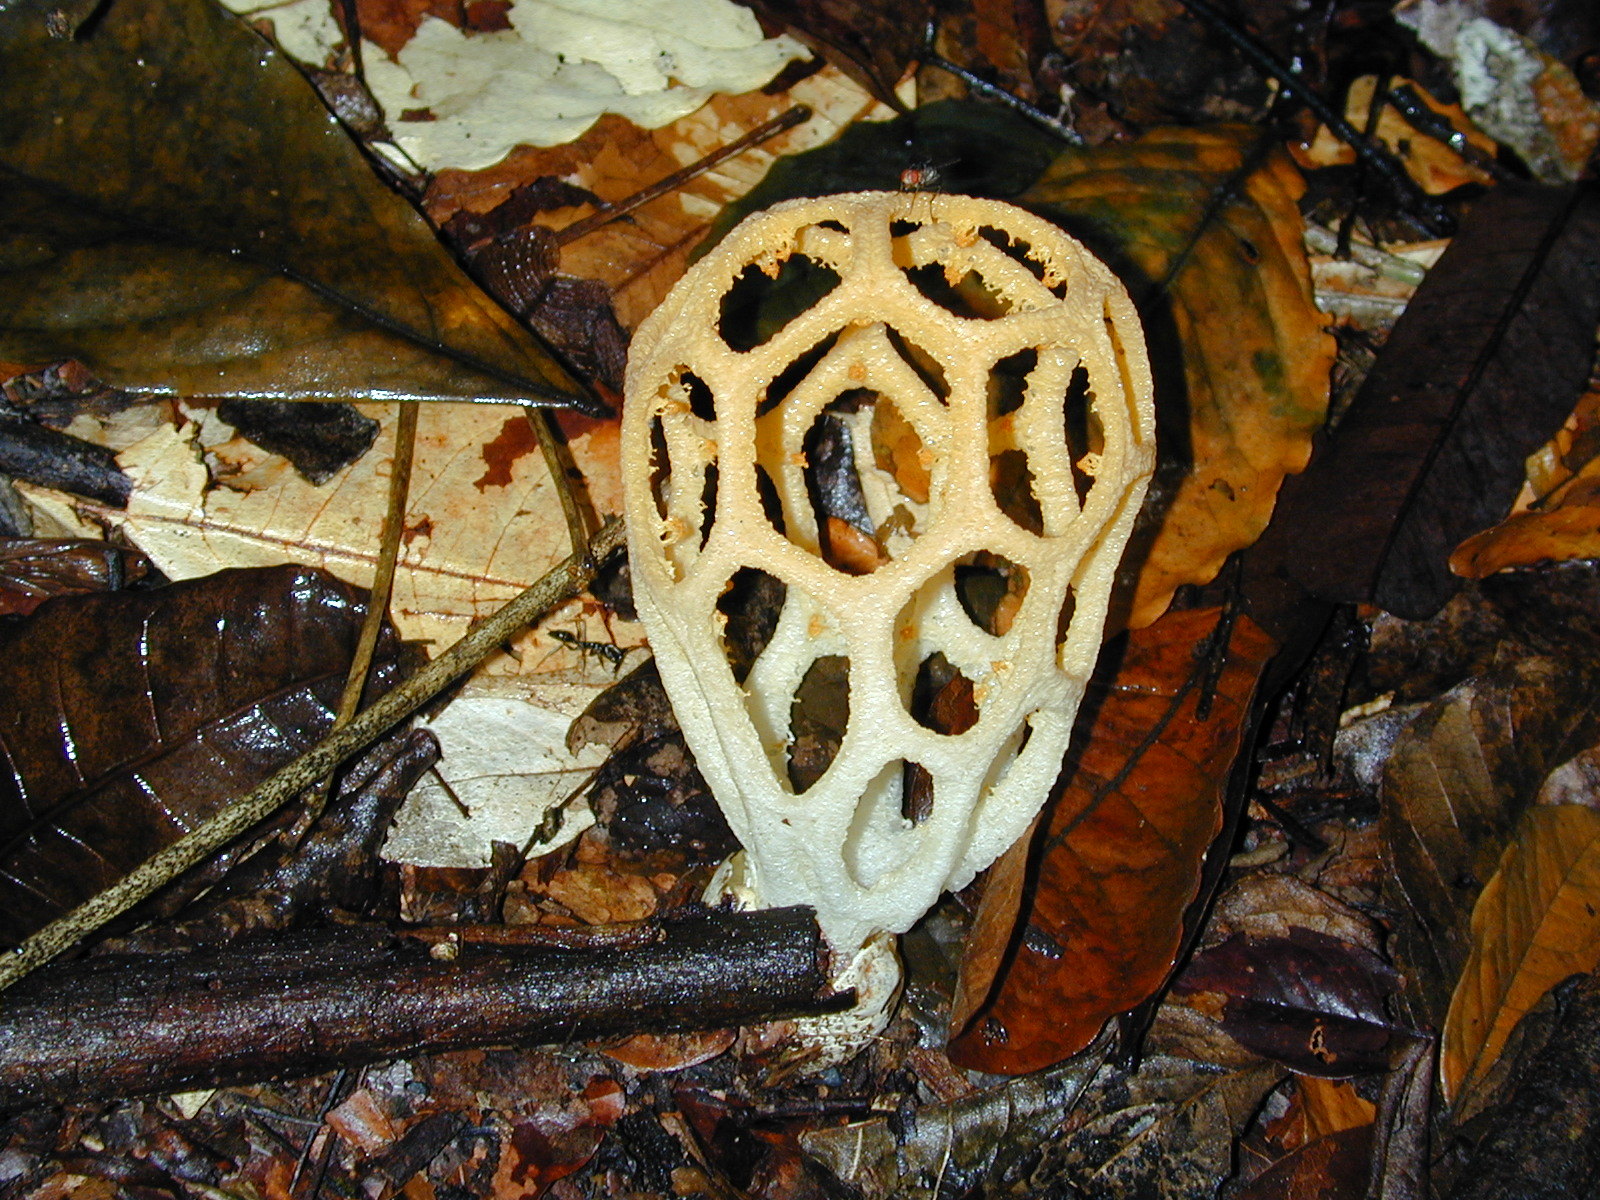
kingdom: Fungi
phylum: Basidiomycota
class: Agaricomycetes
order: Phallales
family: Phallaceae
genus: Clathrus
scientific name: Clathrus chrysomycelinus
